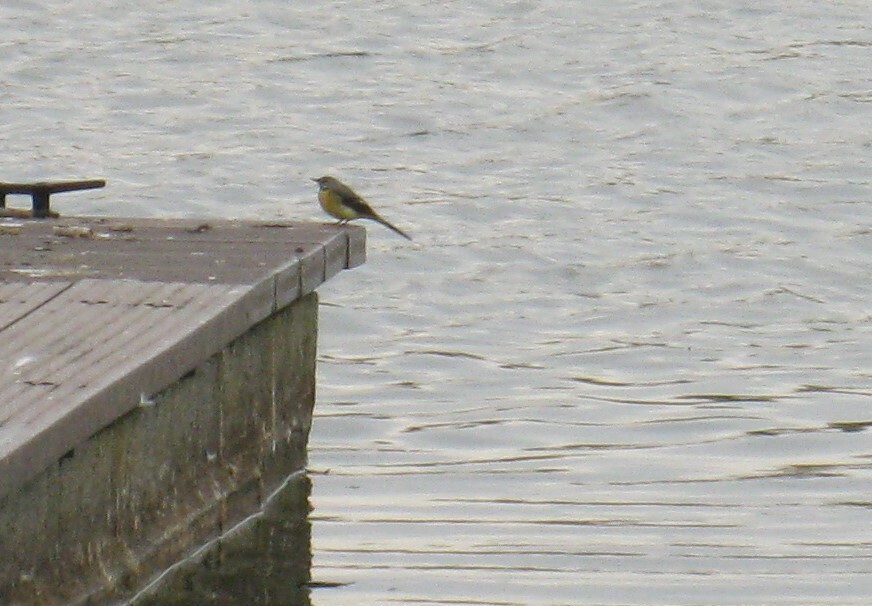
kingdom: Animalia
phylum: Chordata
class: Aves
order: Passeriformes
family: Motacillidae
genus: Motacilla
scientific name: Motacilla cinerea
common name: Grey wagtail
